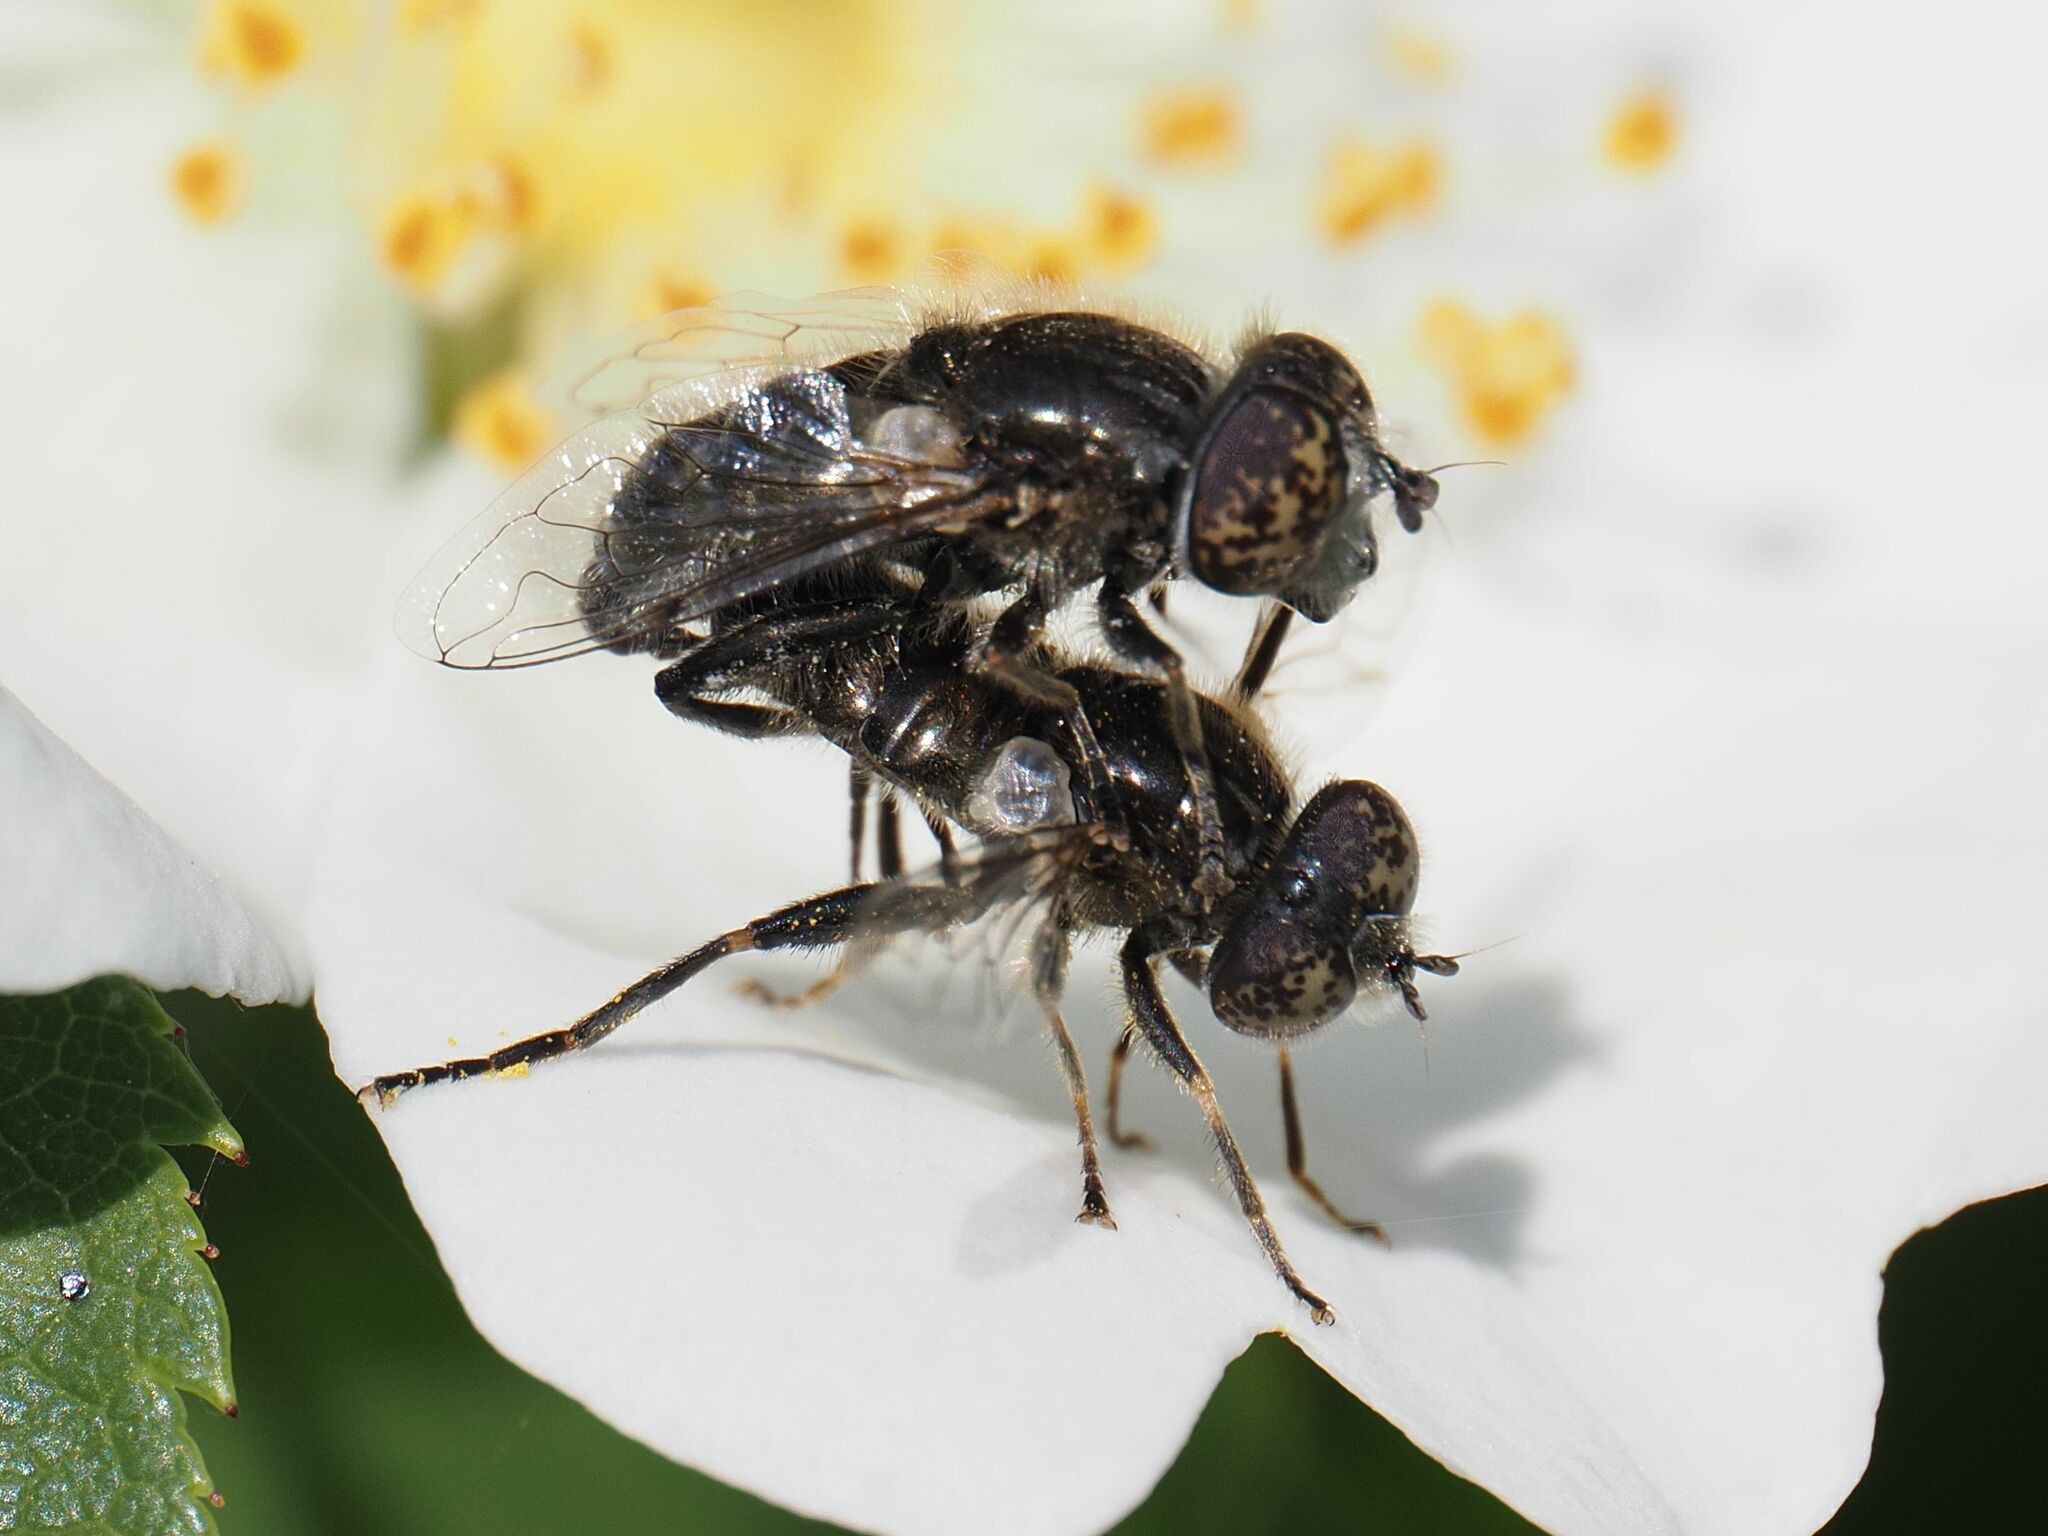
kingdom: Animalia
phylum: Arthropoda
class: Insecta
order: Diptera
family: Syrphidae
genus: Eristalinus
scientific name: Eristalinus sepulchralis
